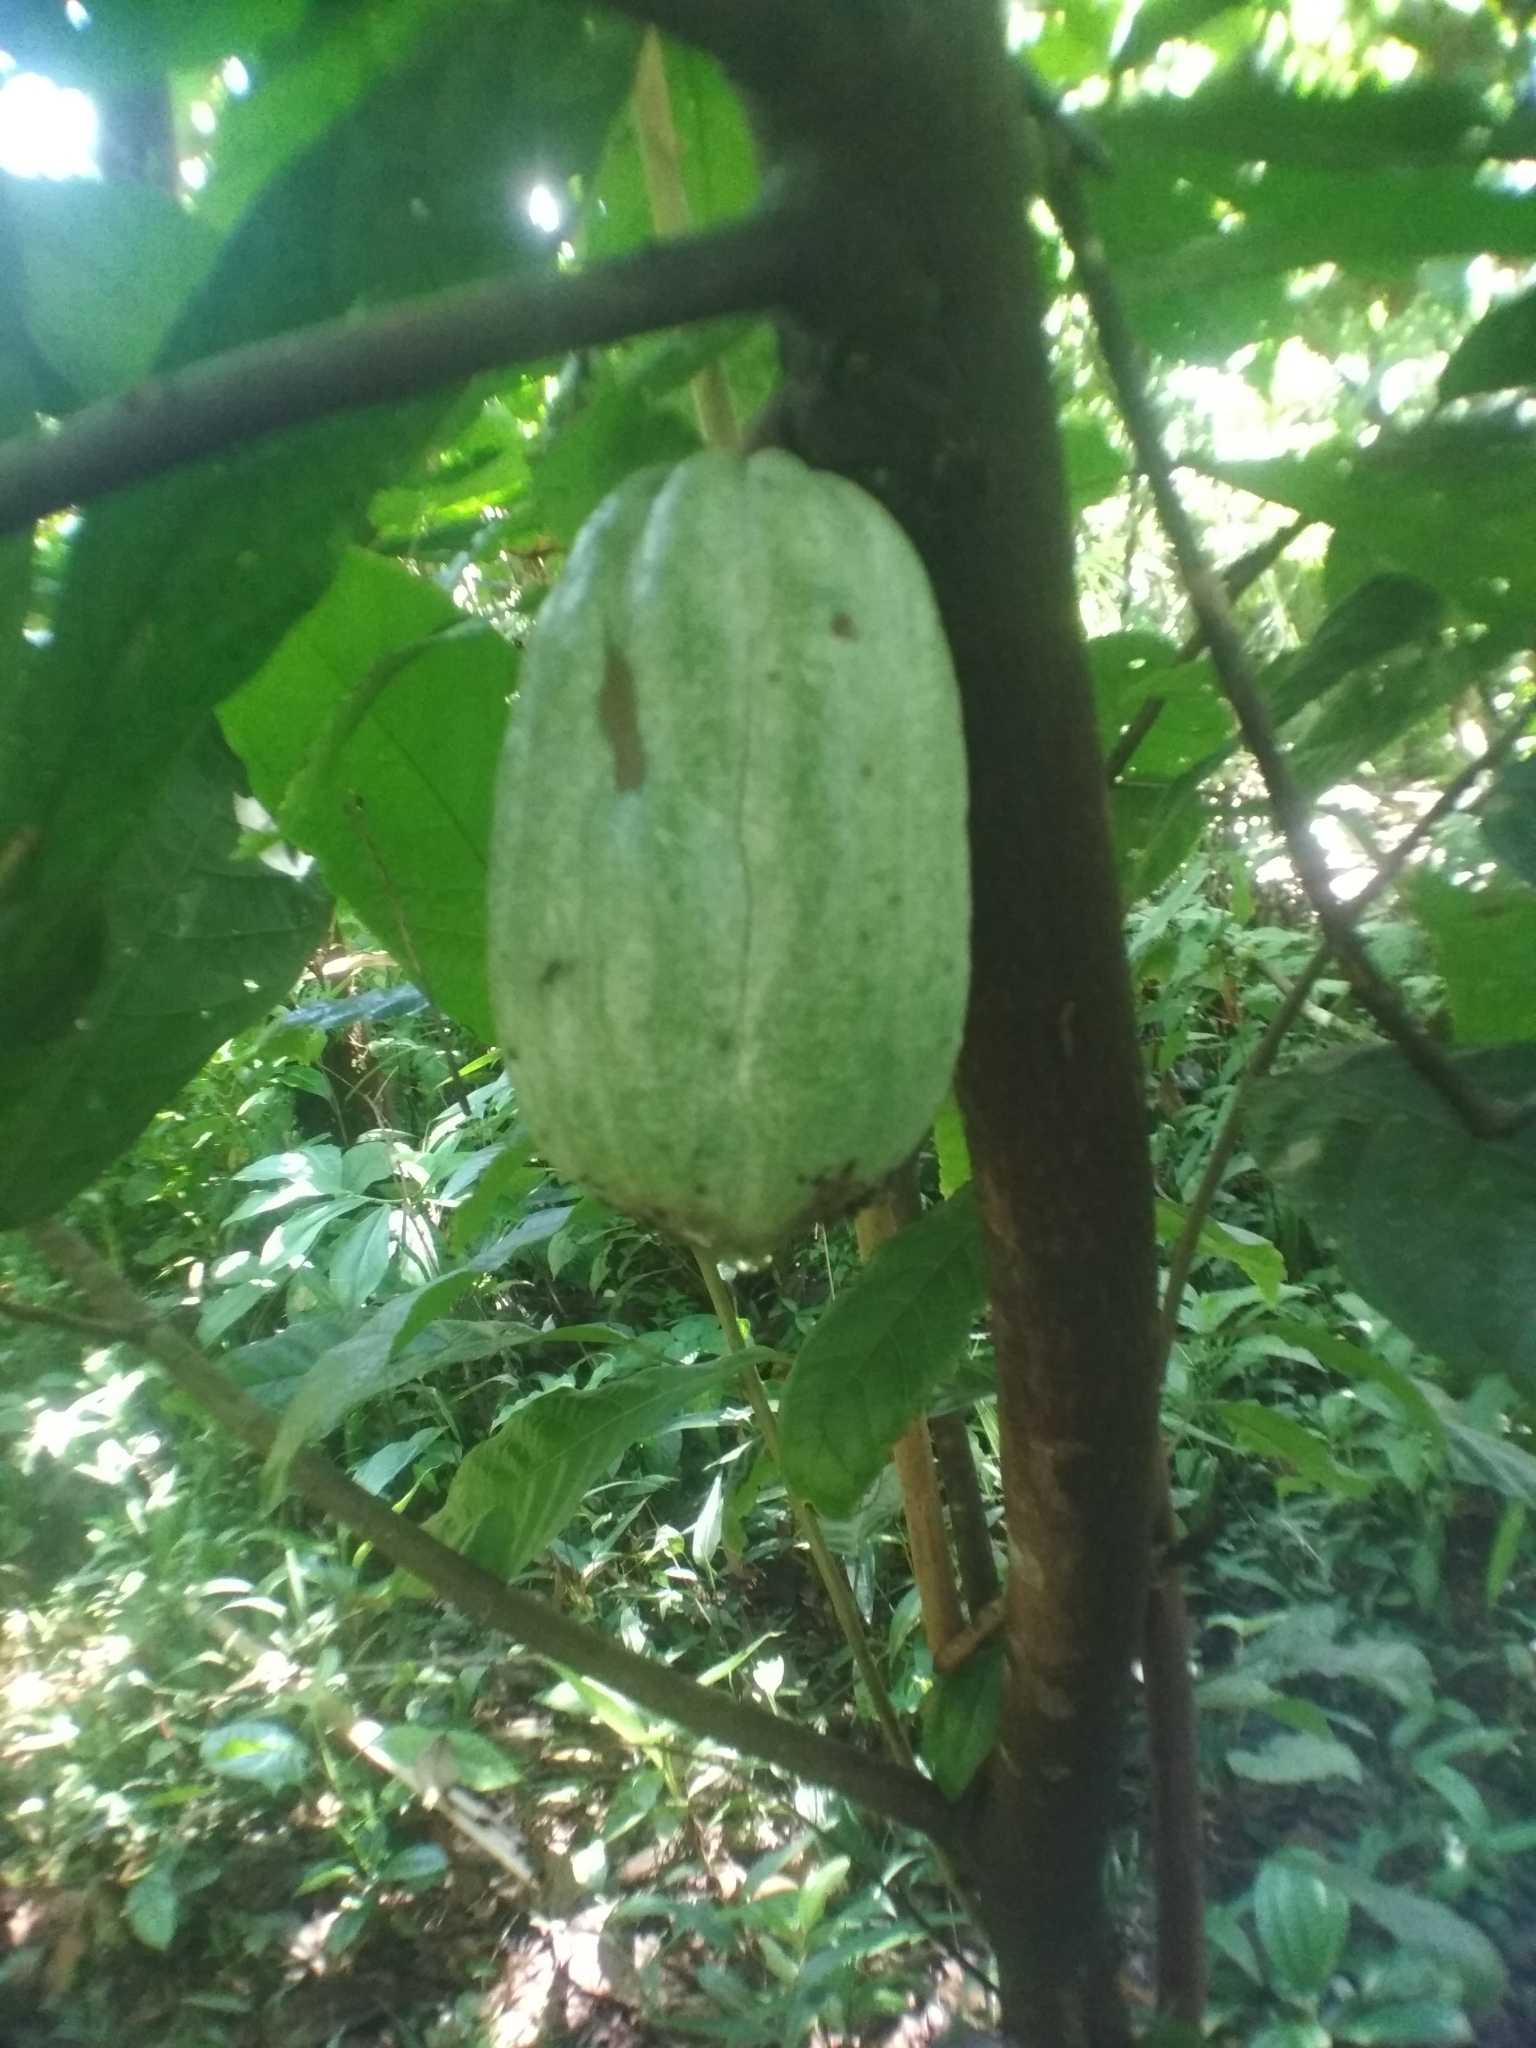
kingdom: Plantae
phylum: Tracheophyta
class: Magnoliopsida
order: Malvales
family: Malvaceae
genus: Theobroma
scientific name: Theobroma cacao
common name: Cocoa
